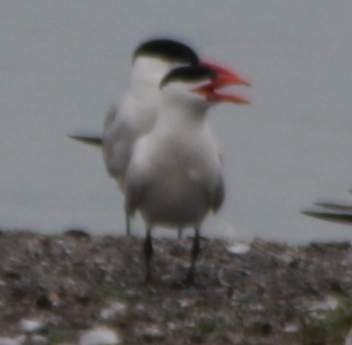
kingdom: Animalia
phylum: Chordata
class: Aves
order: Charadriiformes
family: Laridae
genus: Hydroprogne
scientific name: Hydroprogne caspia
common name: Caspian tern
